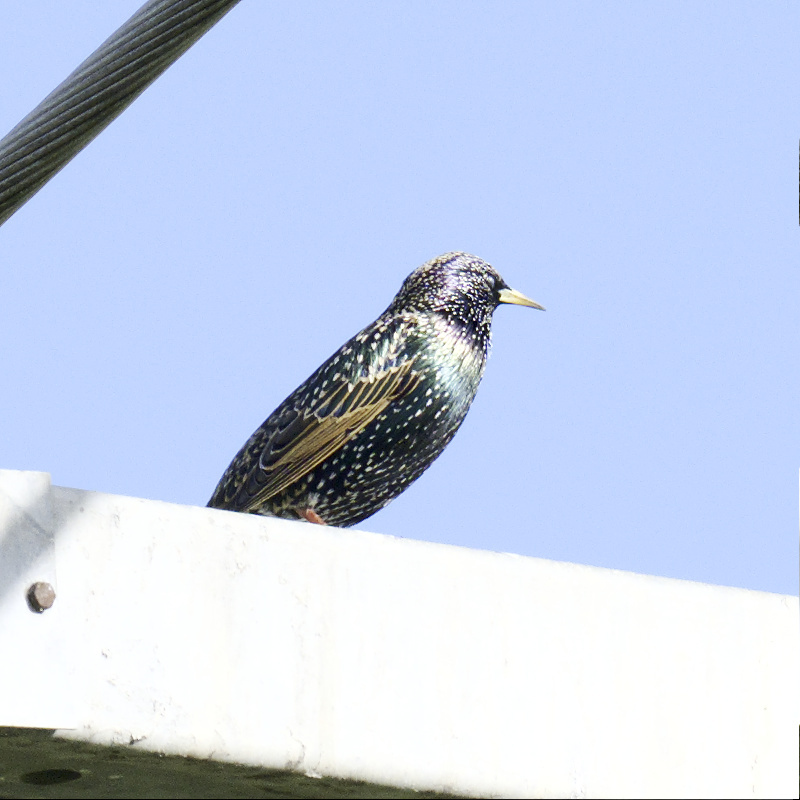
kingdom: Animalia
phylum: Chordata
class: Aves
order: Passeriformes
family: Sturnidae
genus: Sturnus
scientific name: Sturnus vulgaris
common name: Common starling
